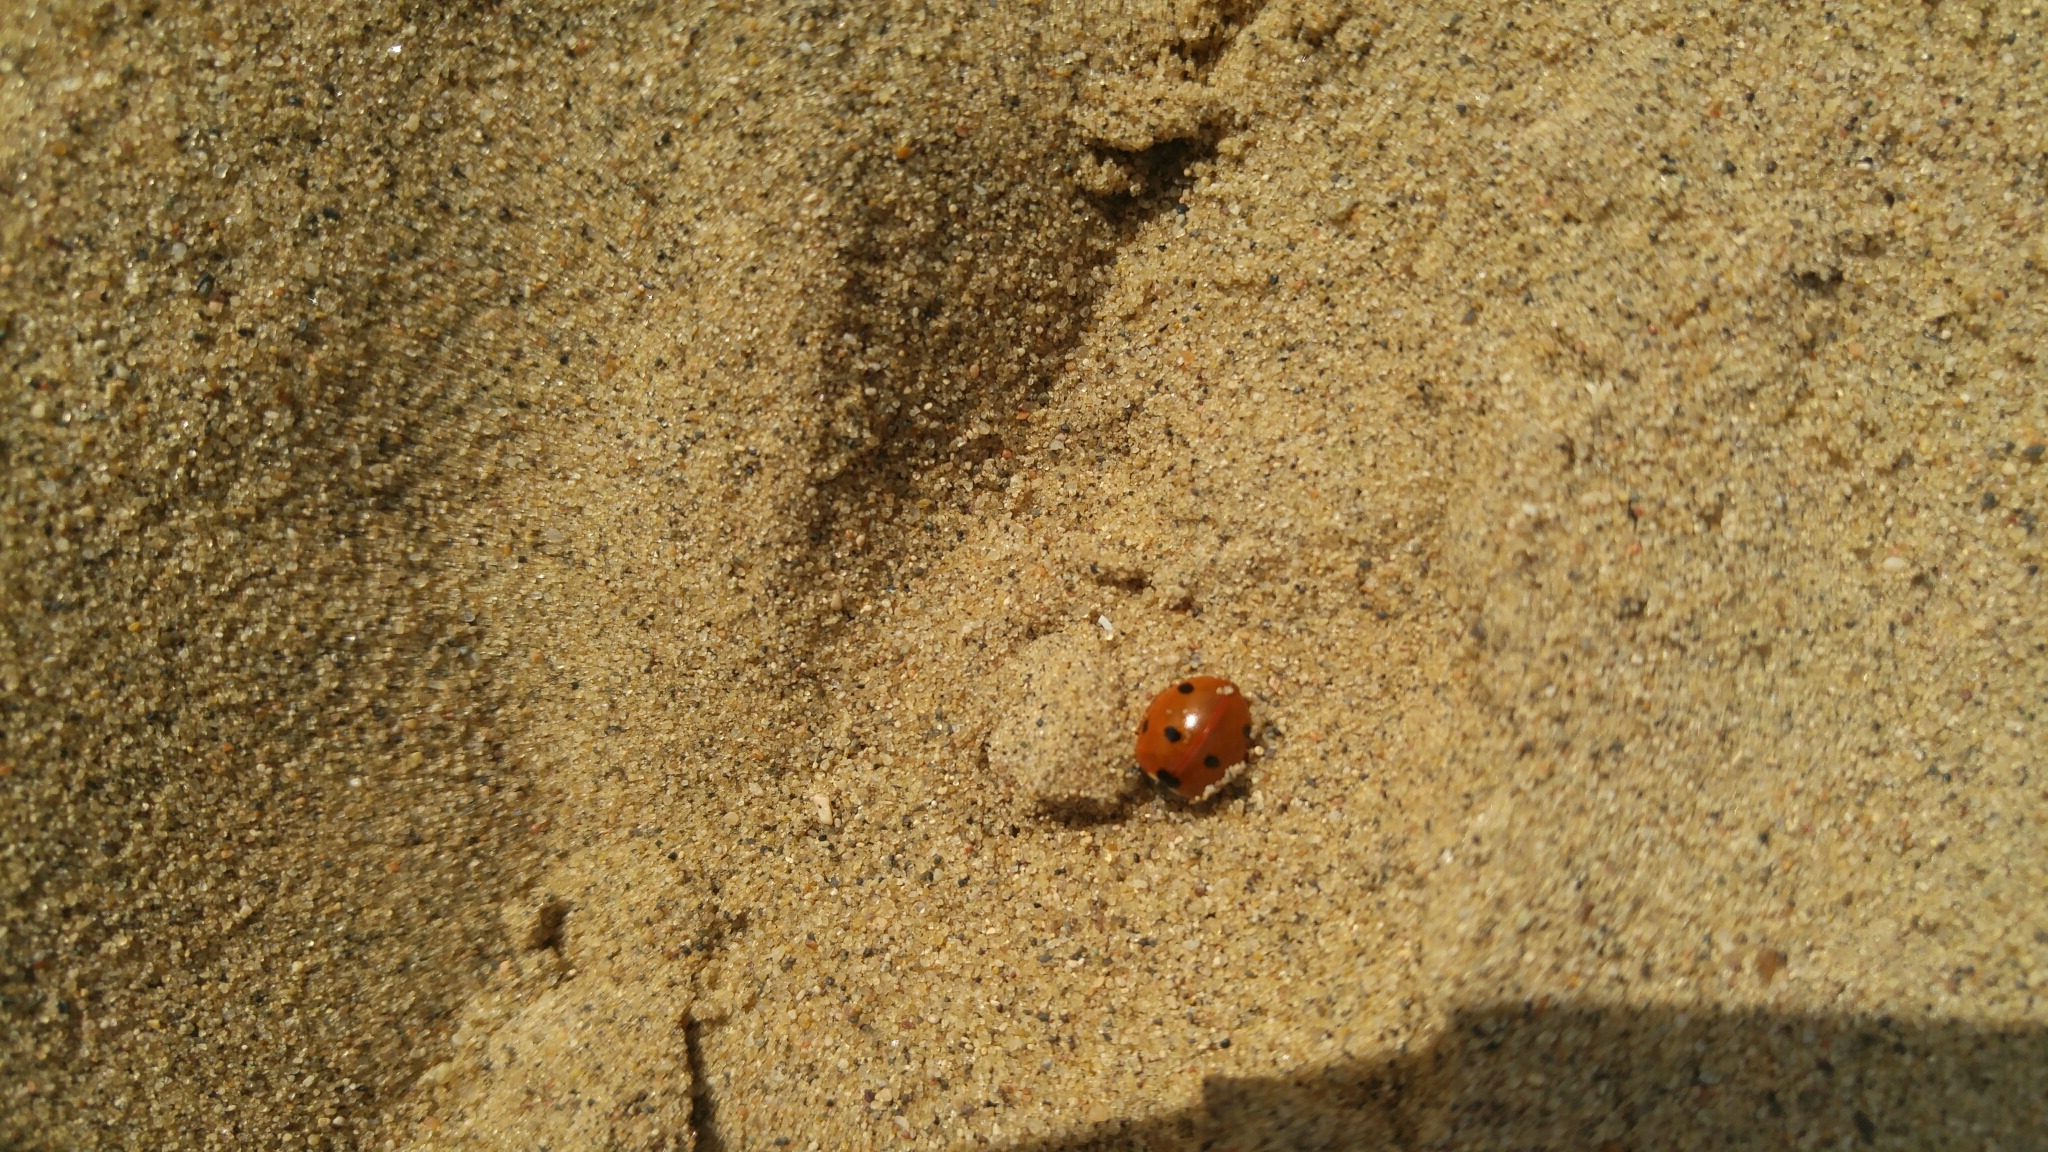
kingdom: Animalia
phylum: Arthropoda
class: Insecta
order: Coleoptera
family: Coccinellidae
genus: Coccinella
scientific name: Coccinella septempunctata
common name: Sevenspotted lady beetle
